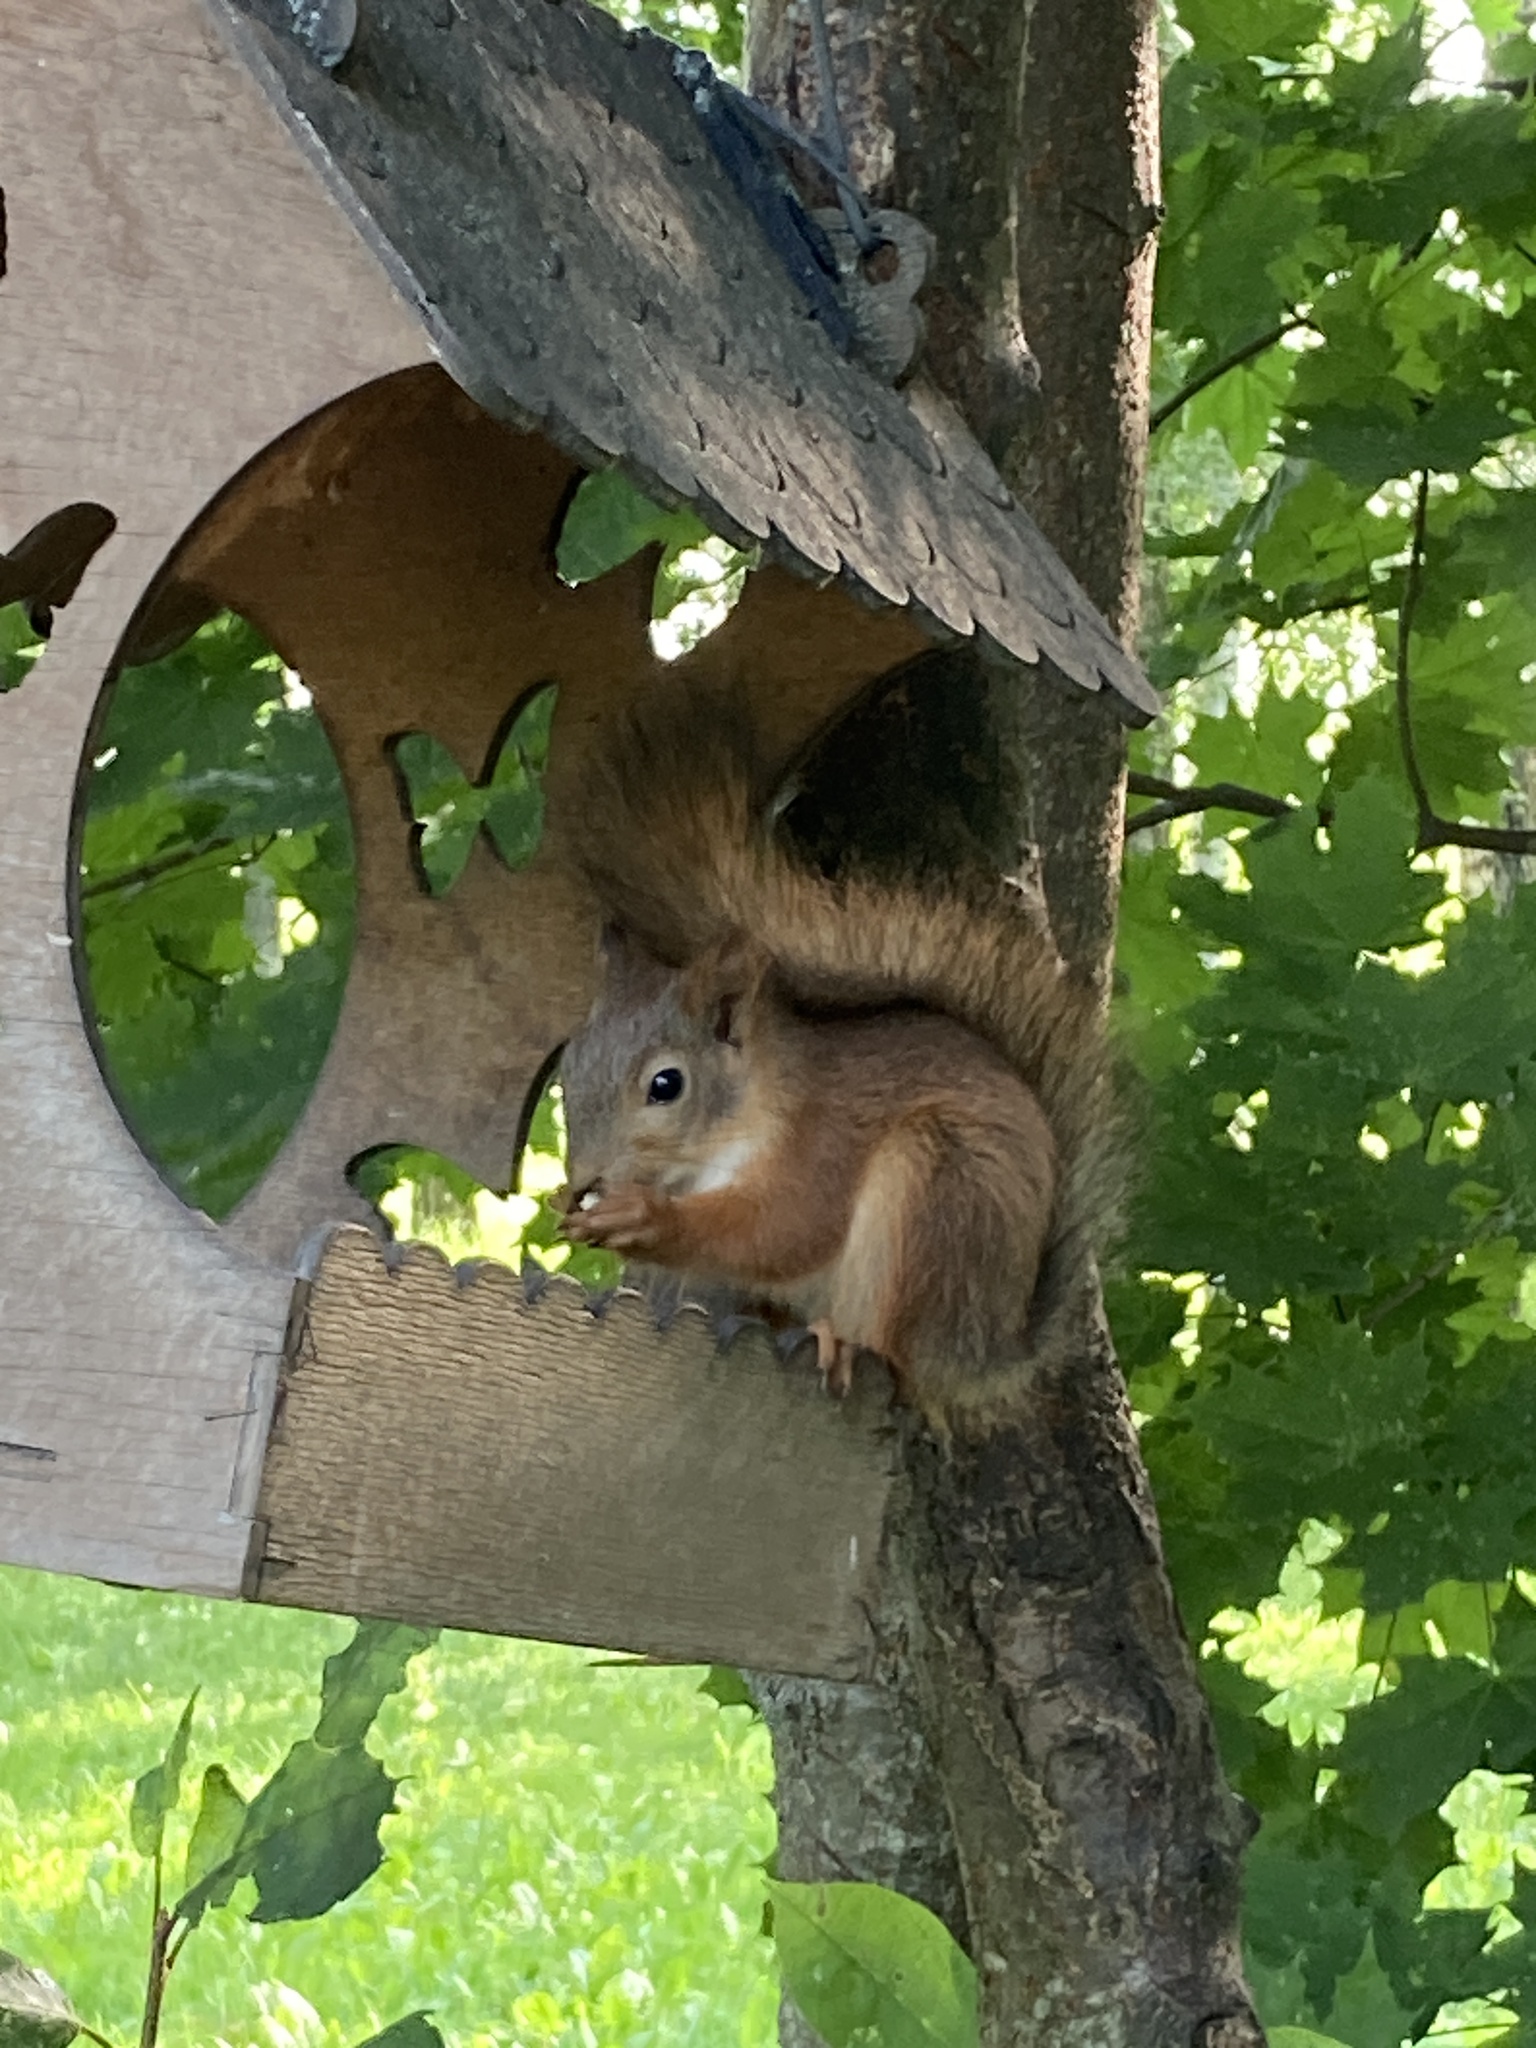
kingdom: Animalia
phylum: Chordata
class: Mammalia
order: Rodentia
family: Sciuridae
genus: Sciurus
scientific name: Sciurus vulgaris
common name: Eurasian red squirrel
